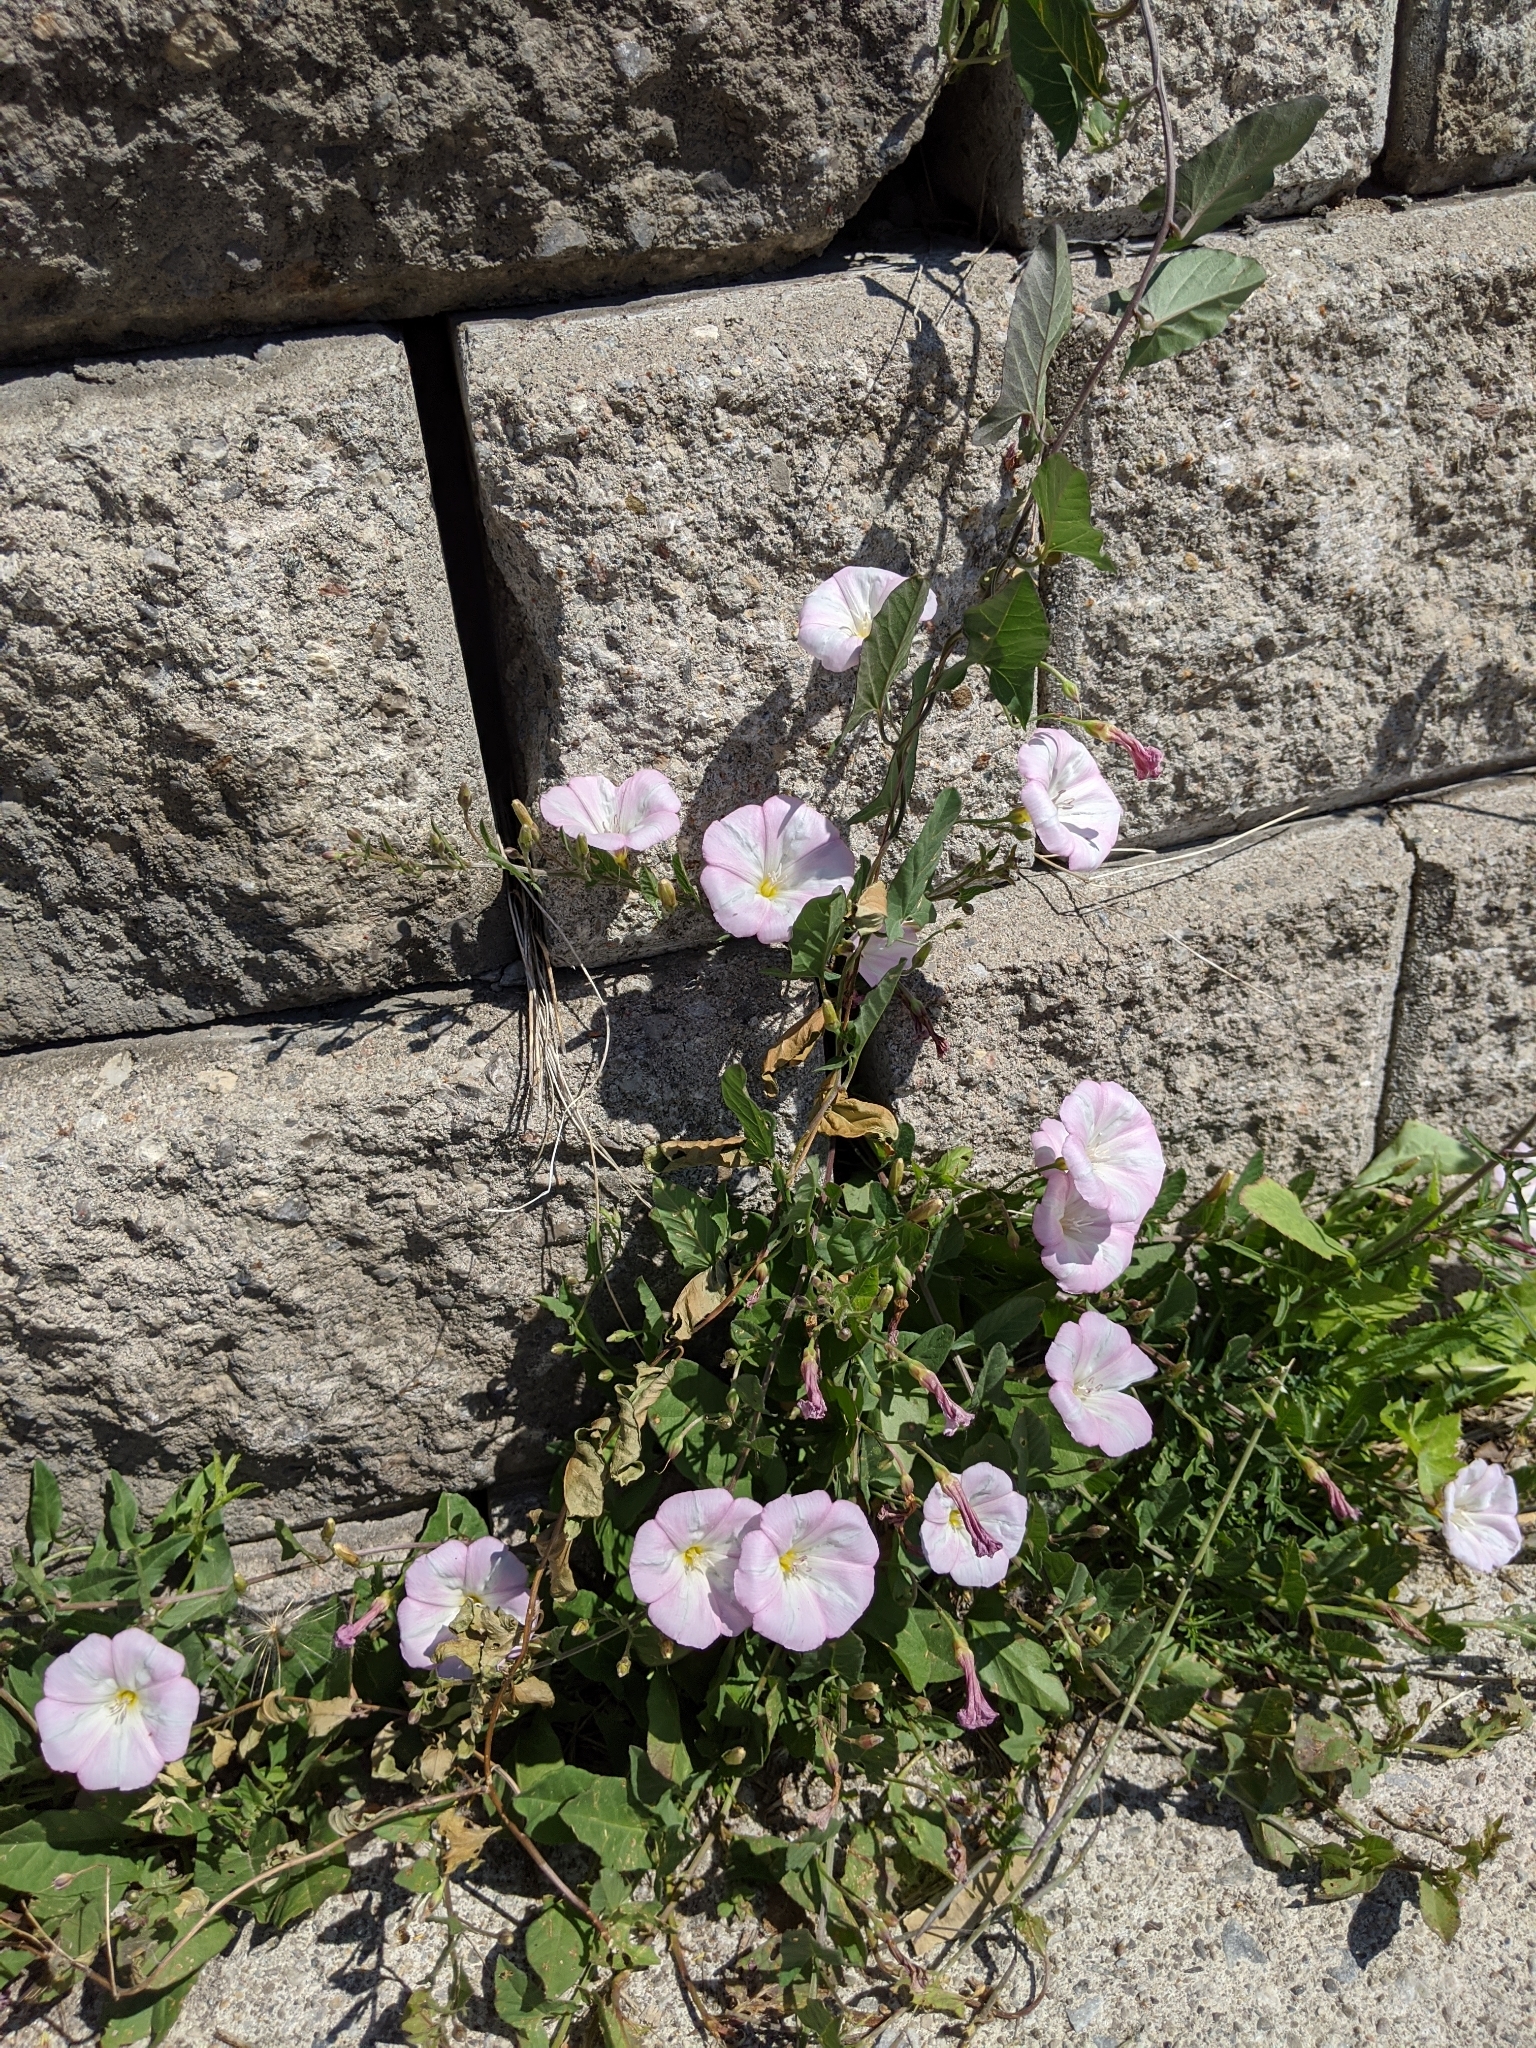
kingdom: Plantae
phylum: Tracheophyta
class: Magnoliopsida
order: Solanales
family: Convolvulaceae
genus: Convolvulus
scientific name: Convolvulus arvensis
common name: Field bindweed
